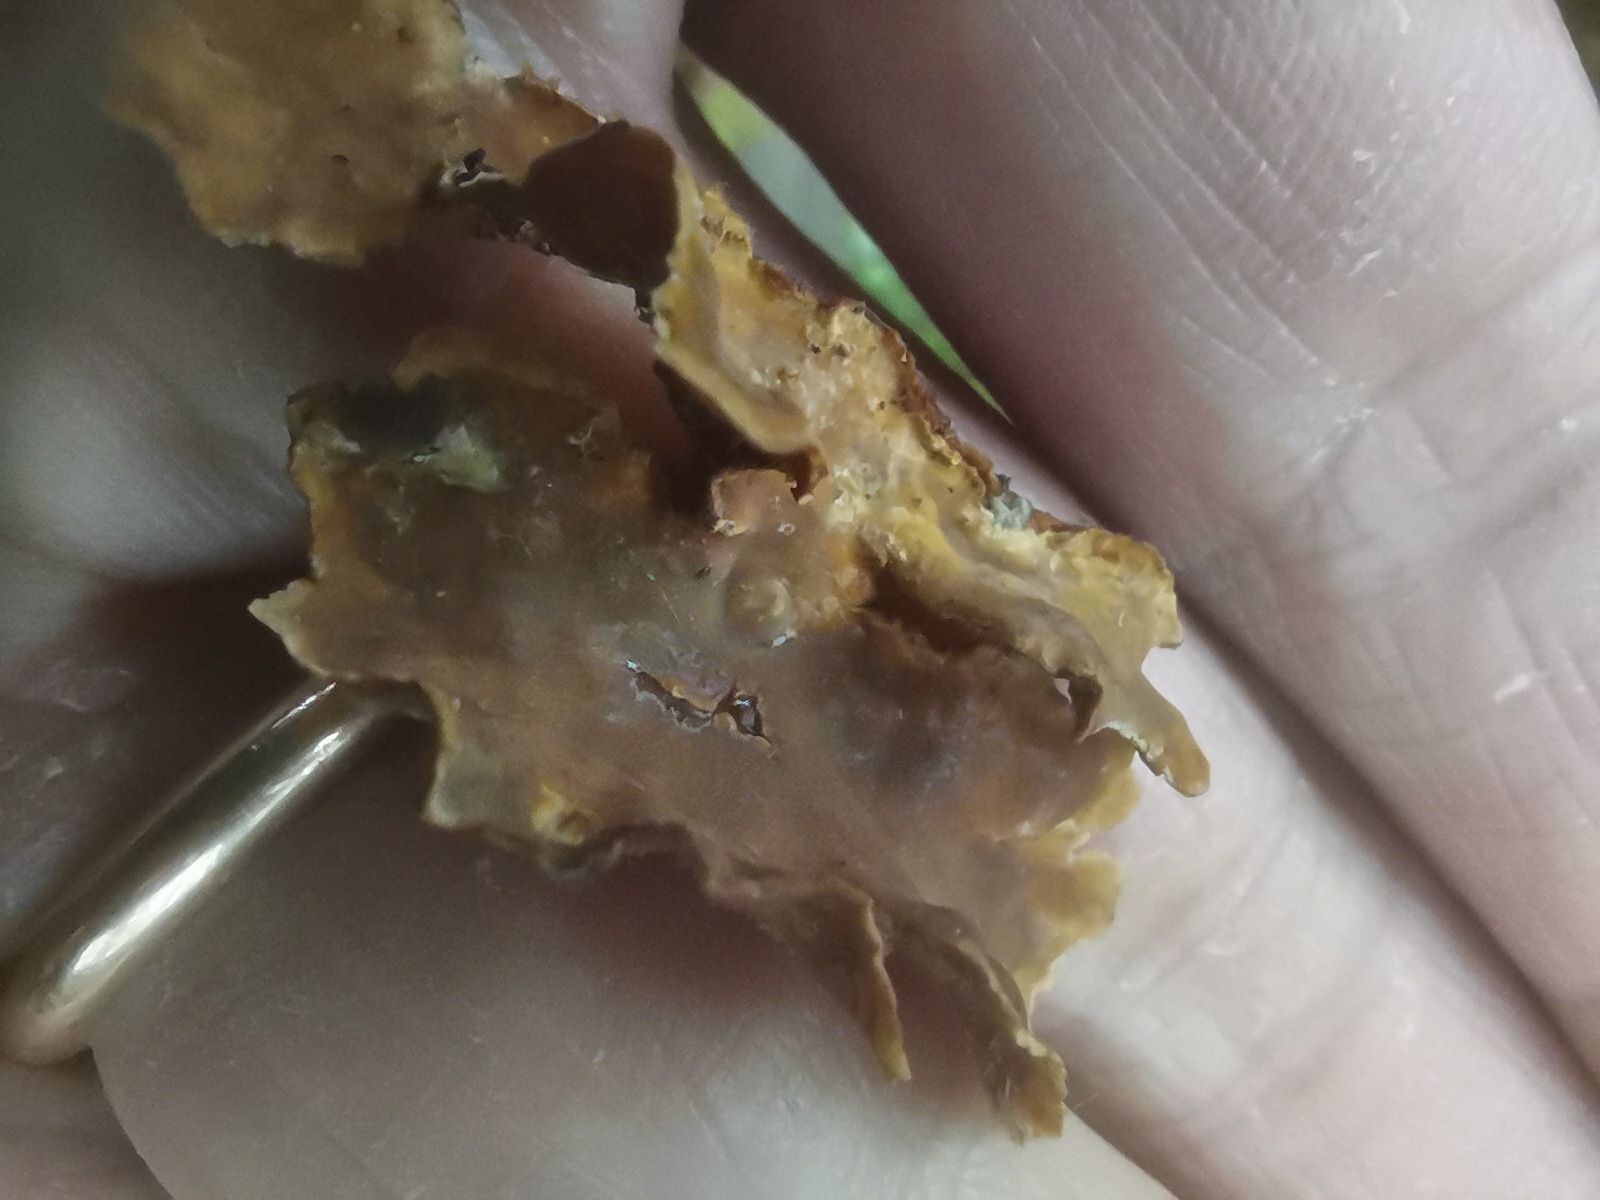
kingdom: Fungi
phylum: Basidiomycota
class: Agaricomycetes
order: Russulales
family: Stereaceae
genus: Stereum
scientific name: Stereum hirsutum
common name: Hairy curtain crust
